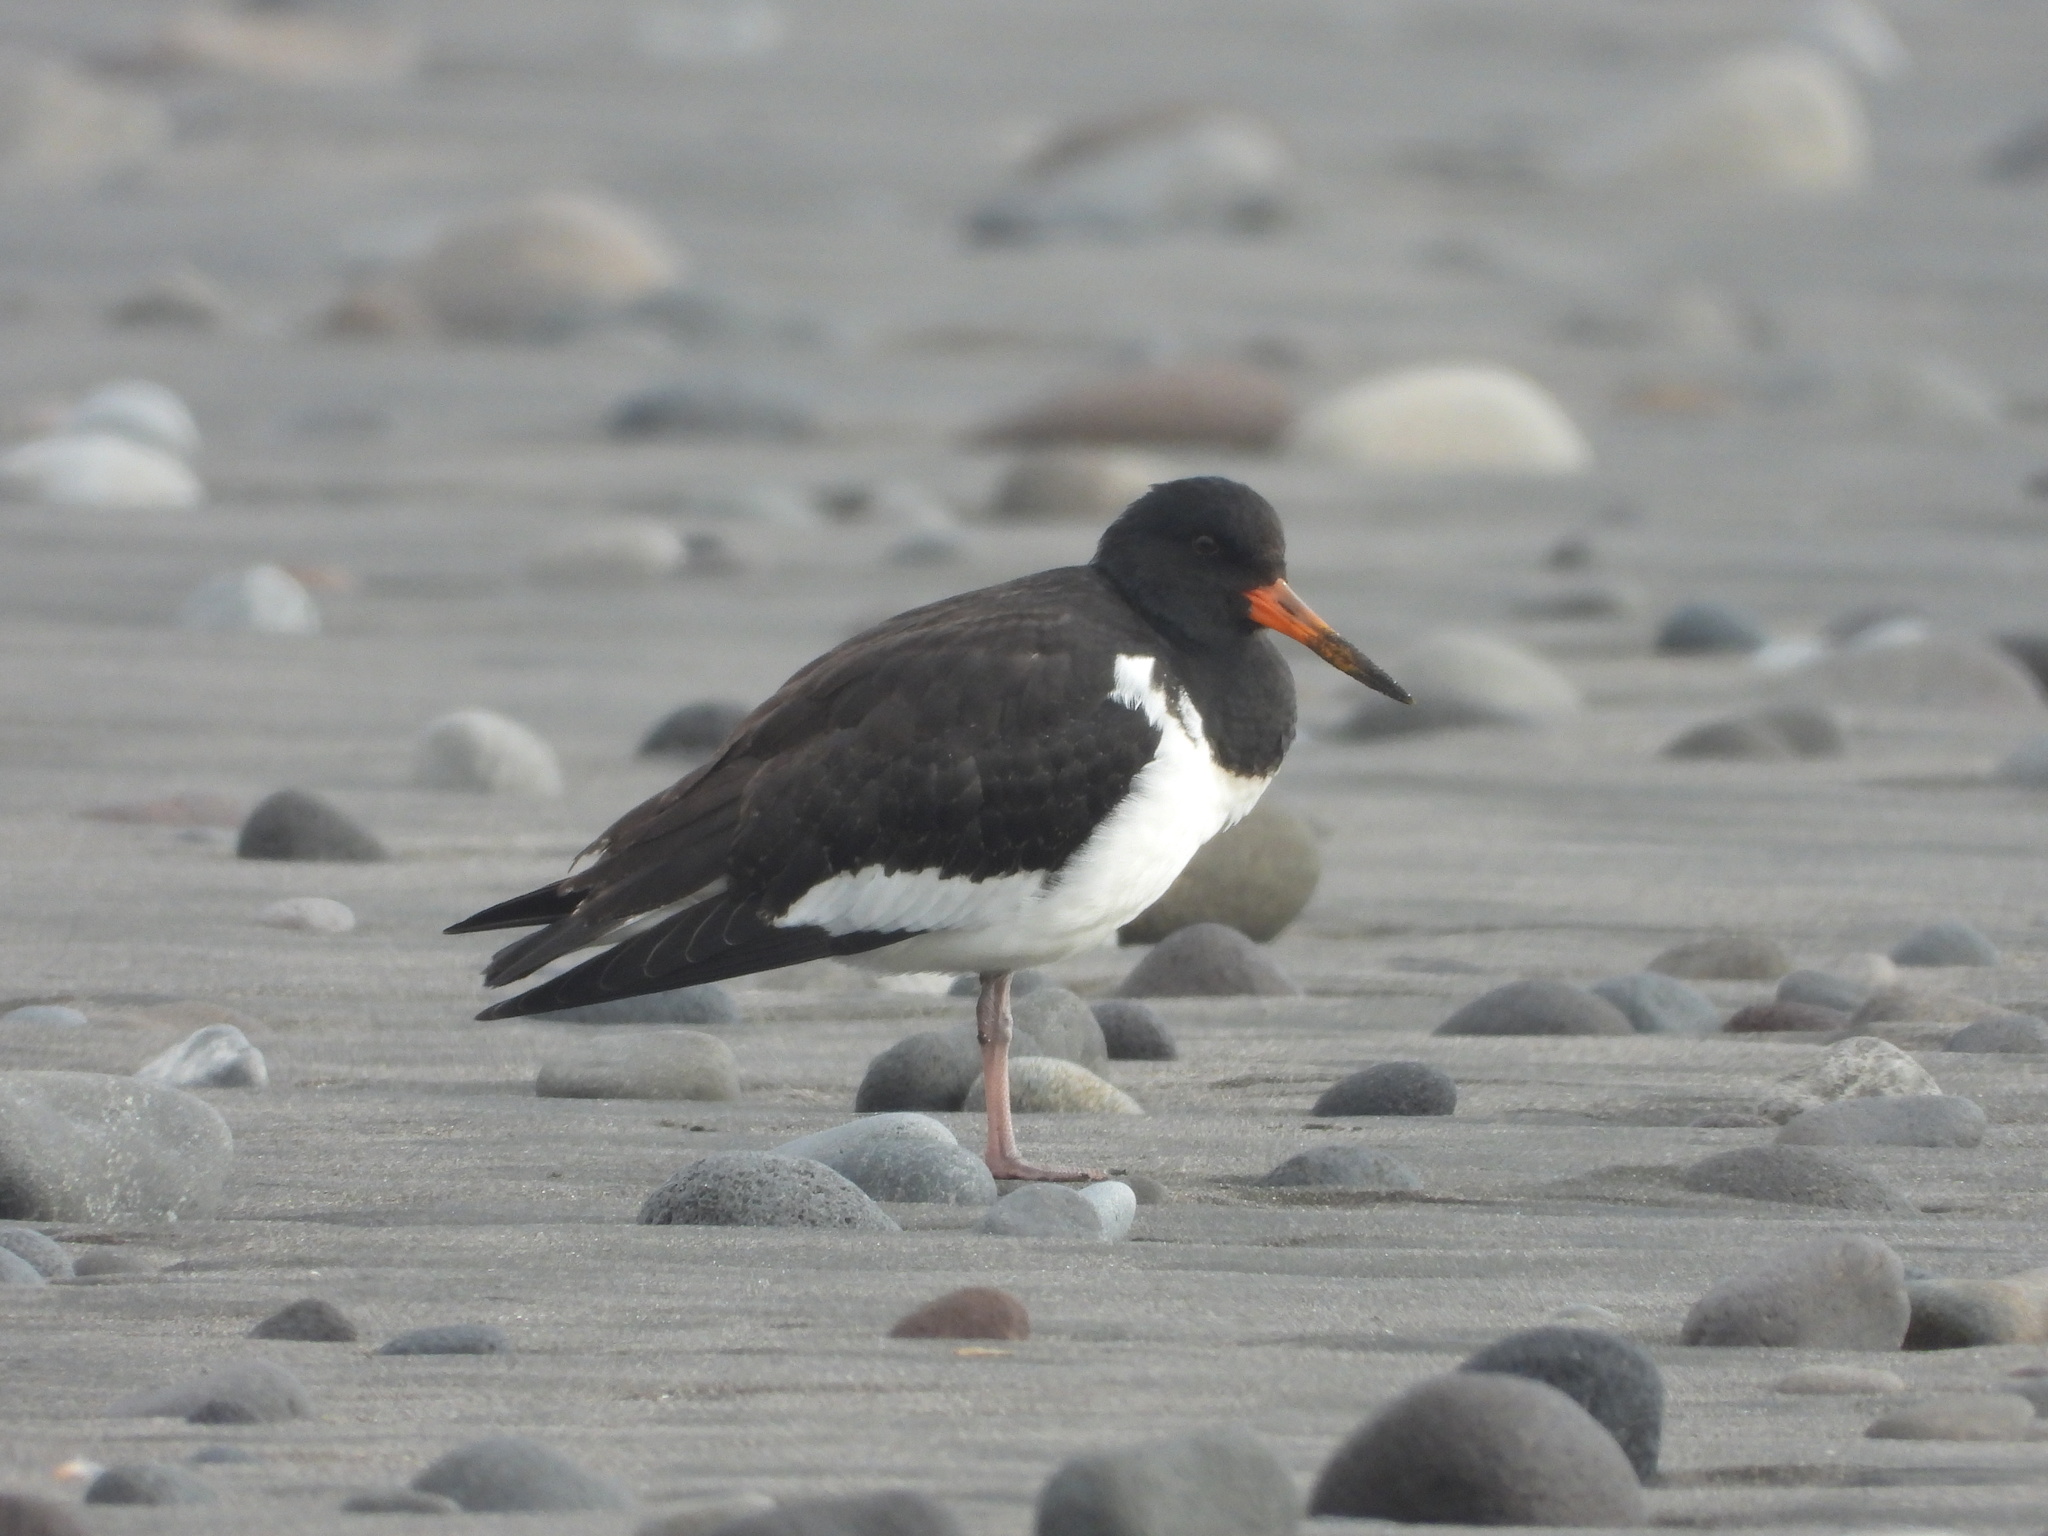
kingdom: Animalia
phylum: Chordata
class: Aves
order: Charadriiformes
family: Haematopodidae
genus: Haematopus
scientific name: Haematopus finschi
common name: South island oystercatcher
